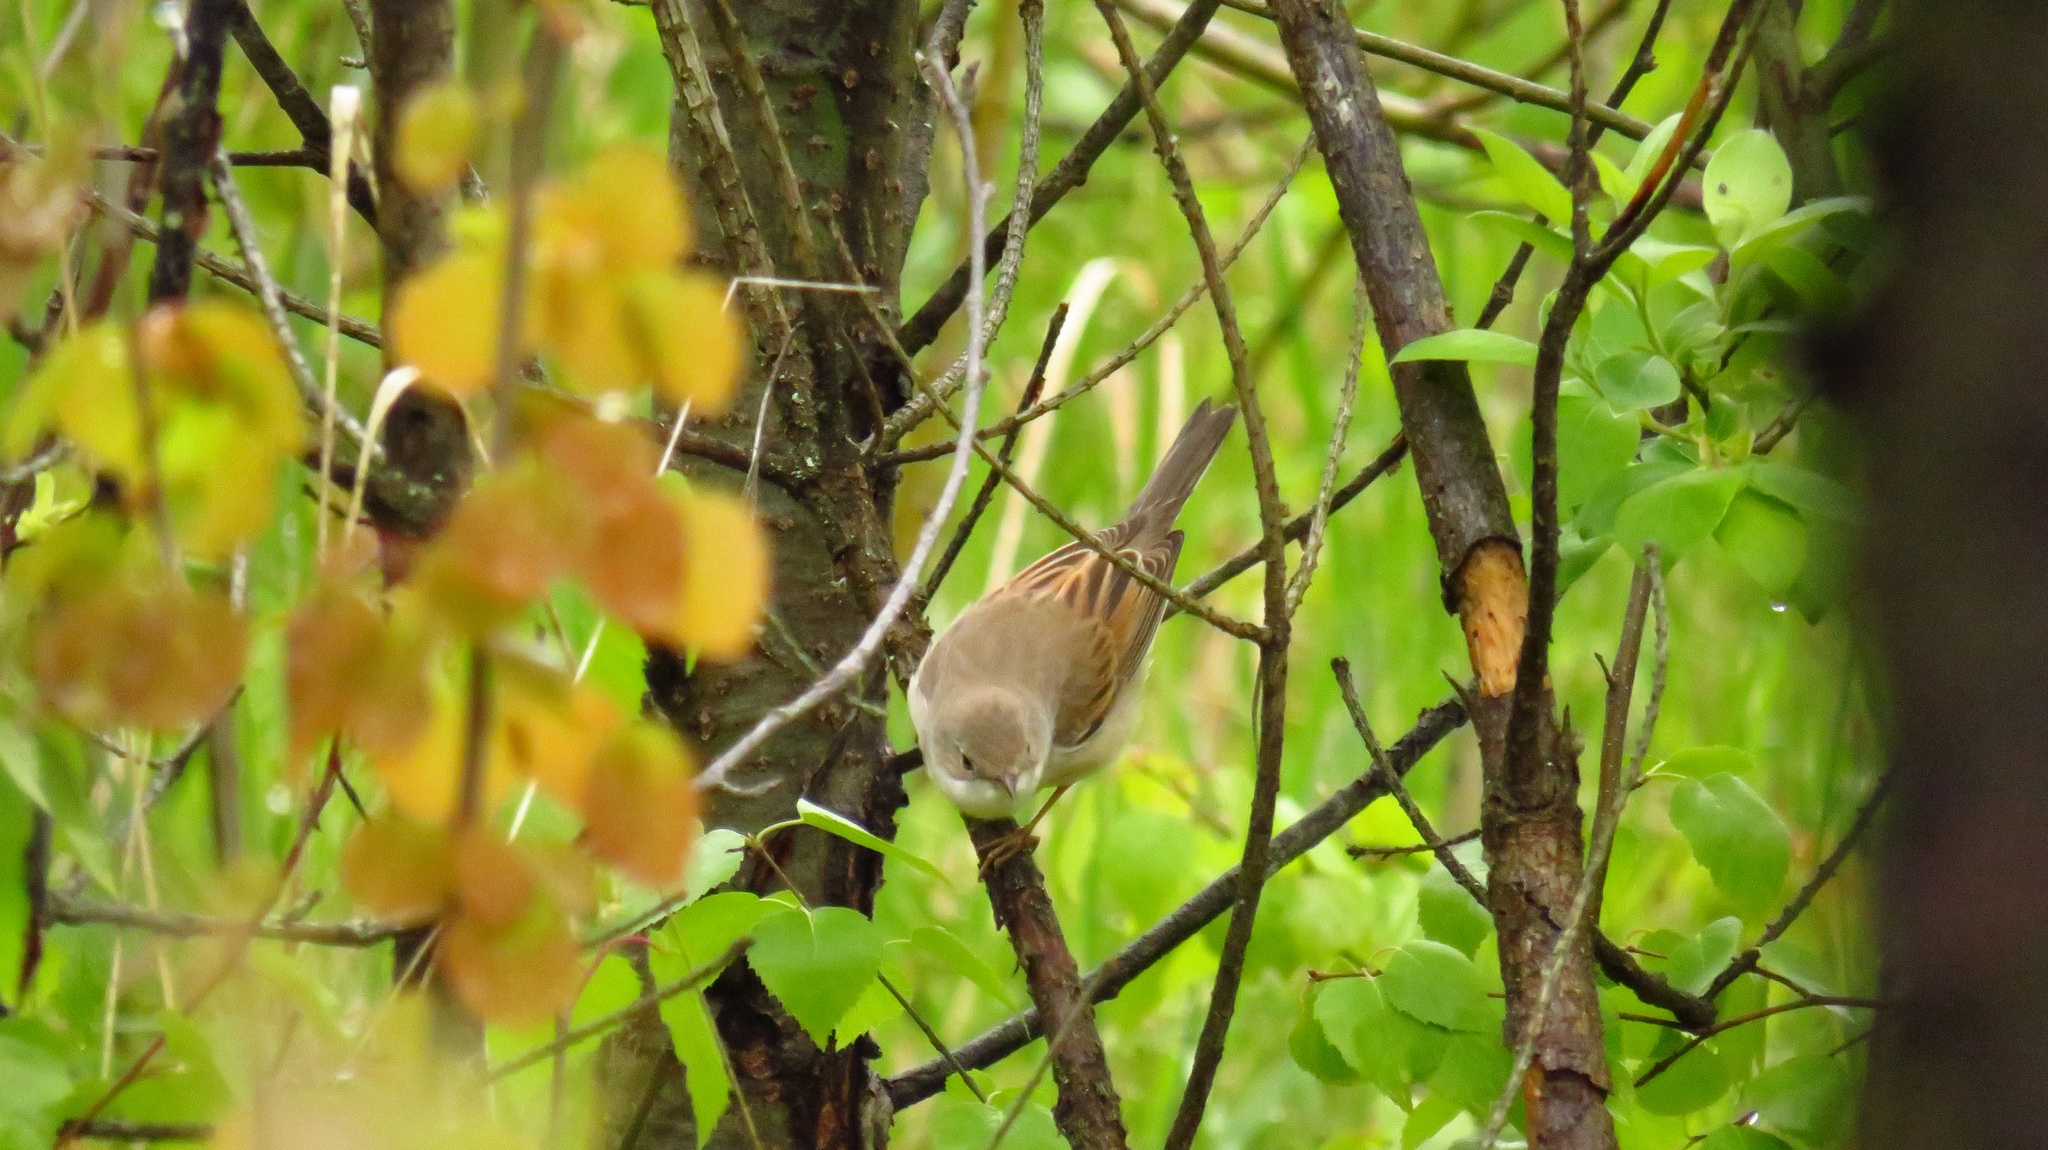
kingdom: Animalia
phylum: Chordata
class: Aves
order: Passeriformes
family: Sylviidae
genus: Sylvia
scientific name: Sylvia communis
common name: Common whitethroat
